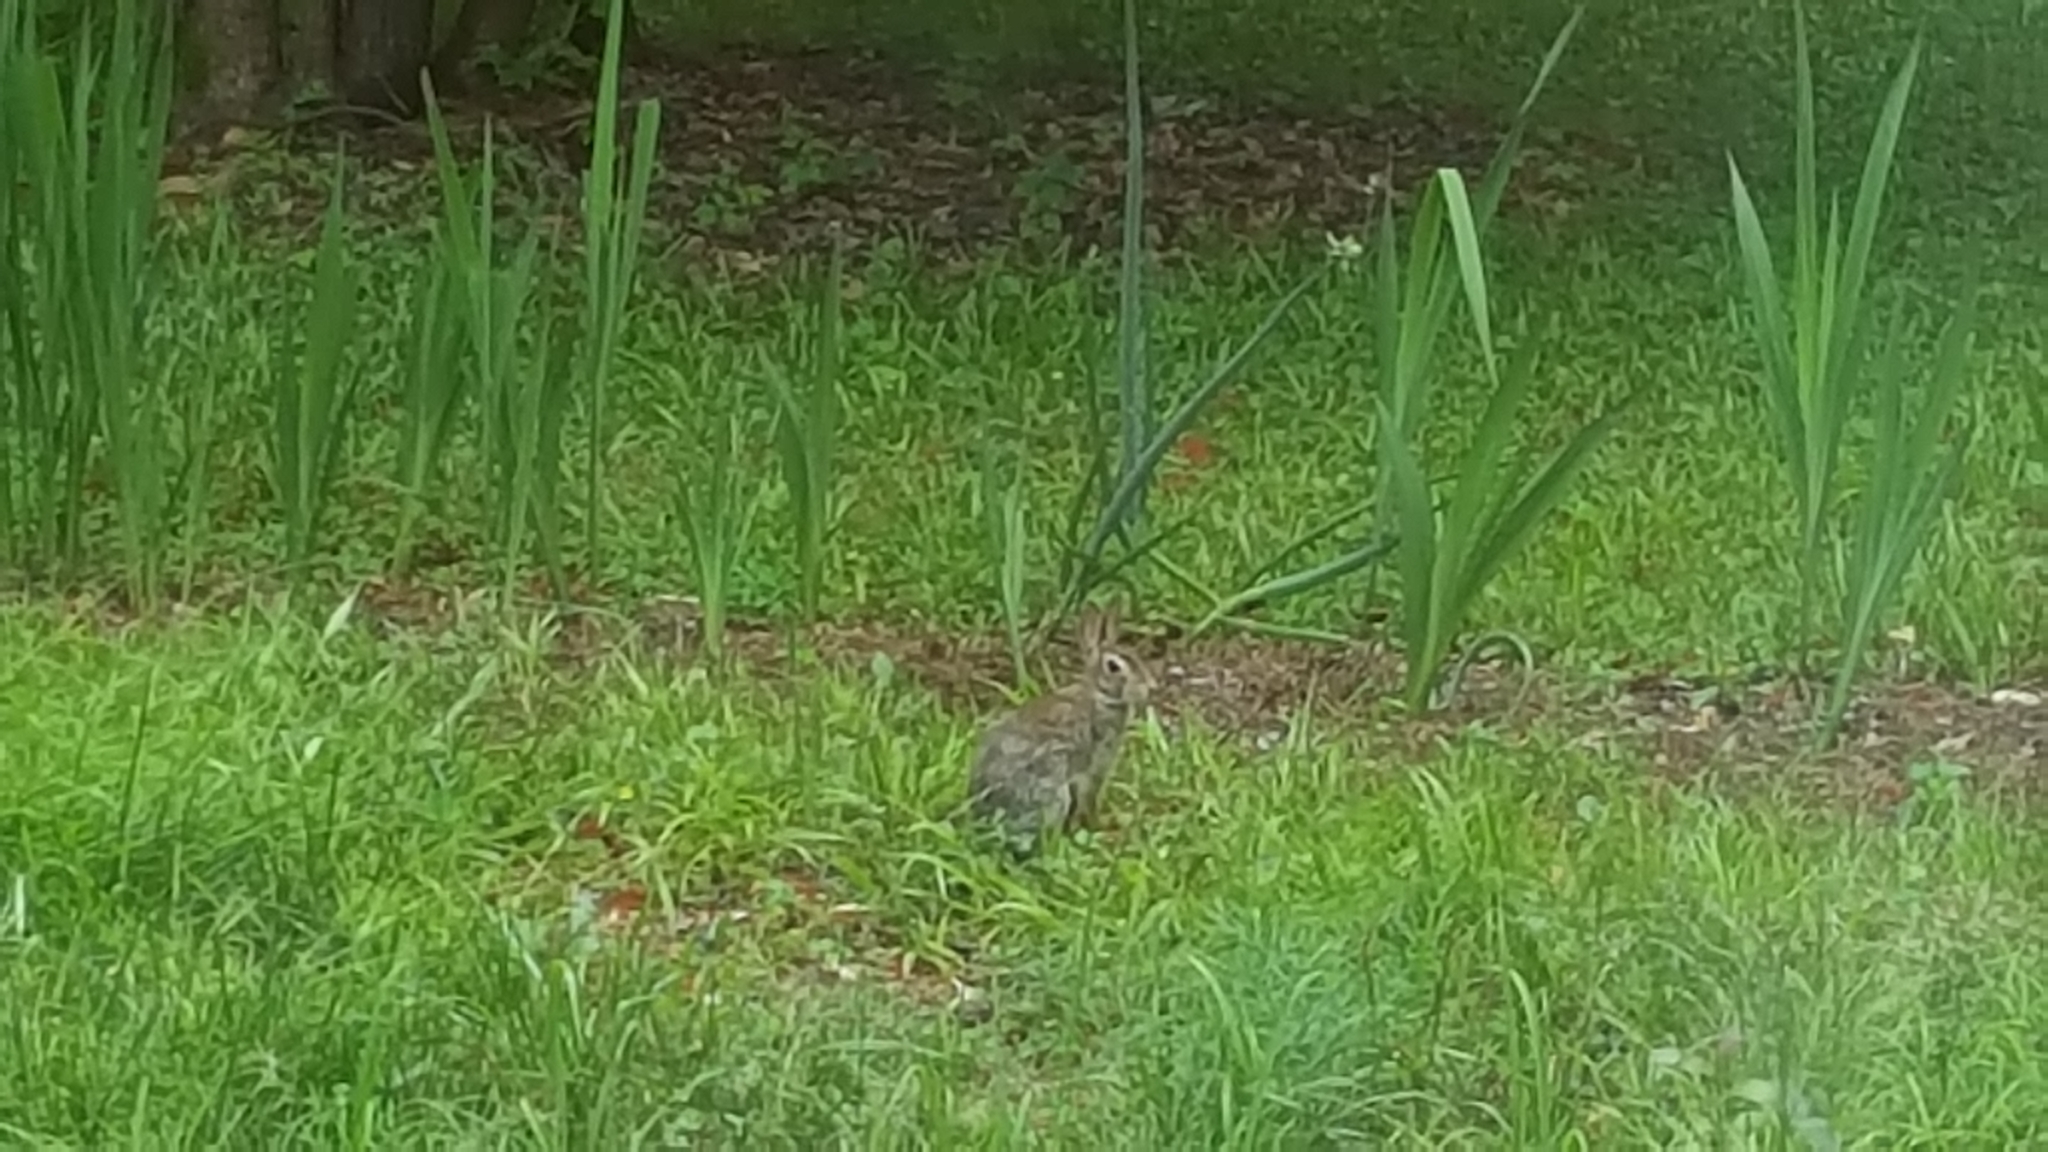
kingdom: Animalia
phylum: Chordata
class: Mammalia
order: Lagomorpha
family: Leporidae
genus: Sylvilagus
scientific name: Sylvilagus floridanus
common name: Eastern cottontail
